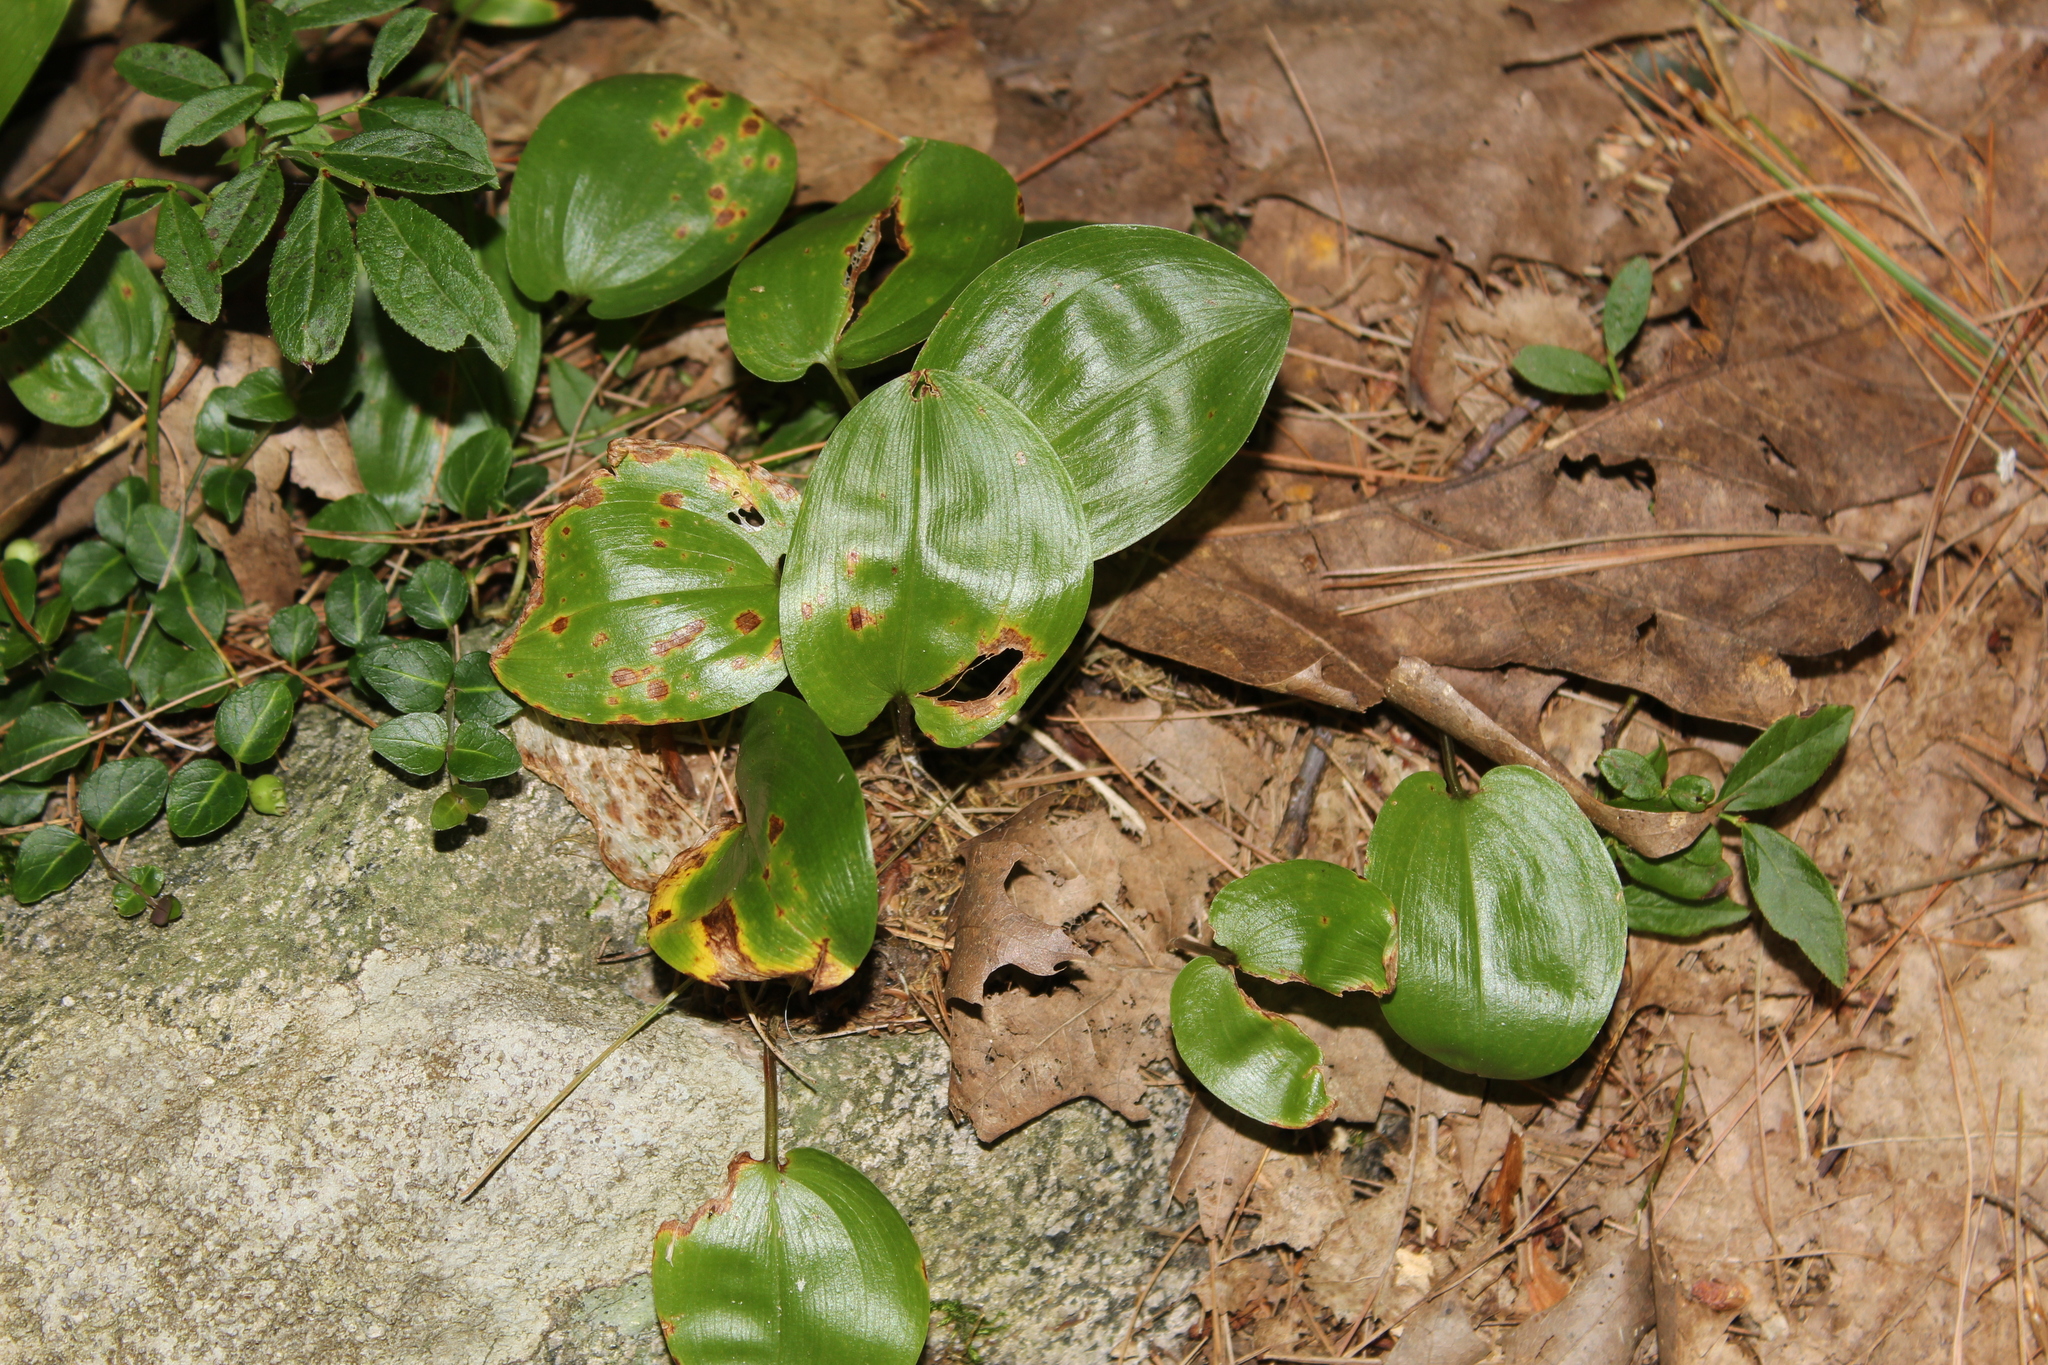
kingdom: Plantae
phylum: Tracheophyta
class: Liliopsida
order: Asparagales
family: Asparagaceae
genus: Maianthemum
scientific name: Maianthemum canadense
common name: False lily-of-the-valley
